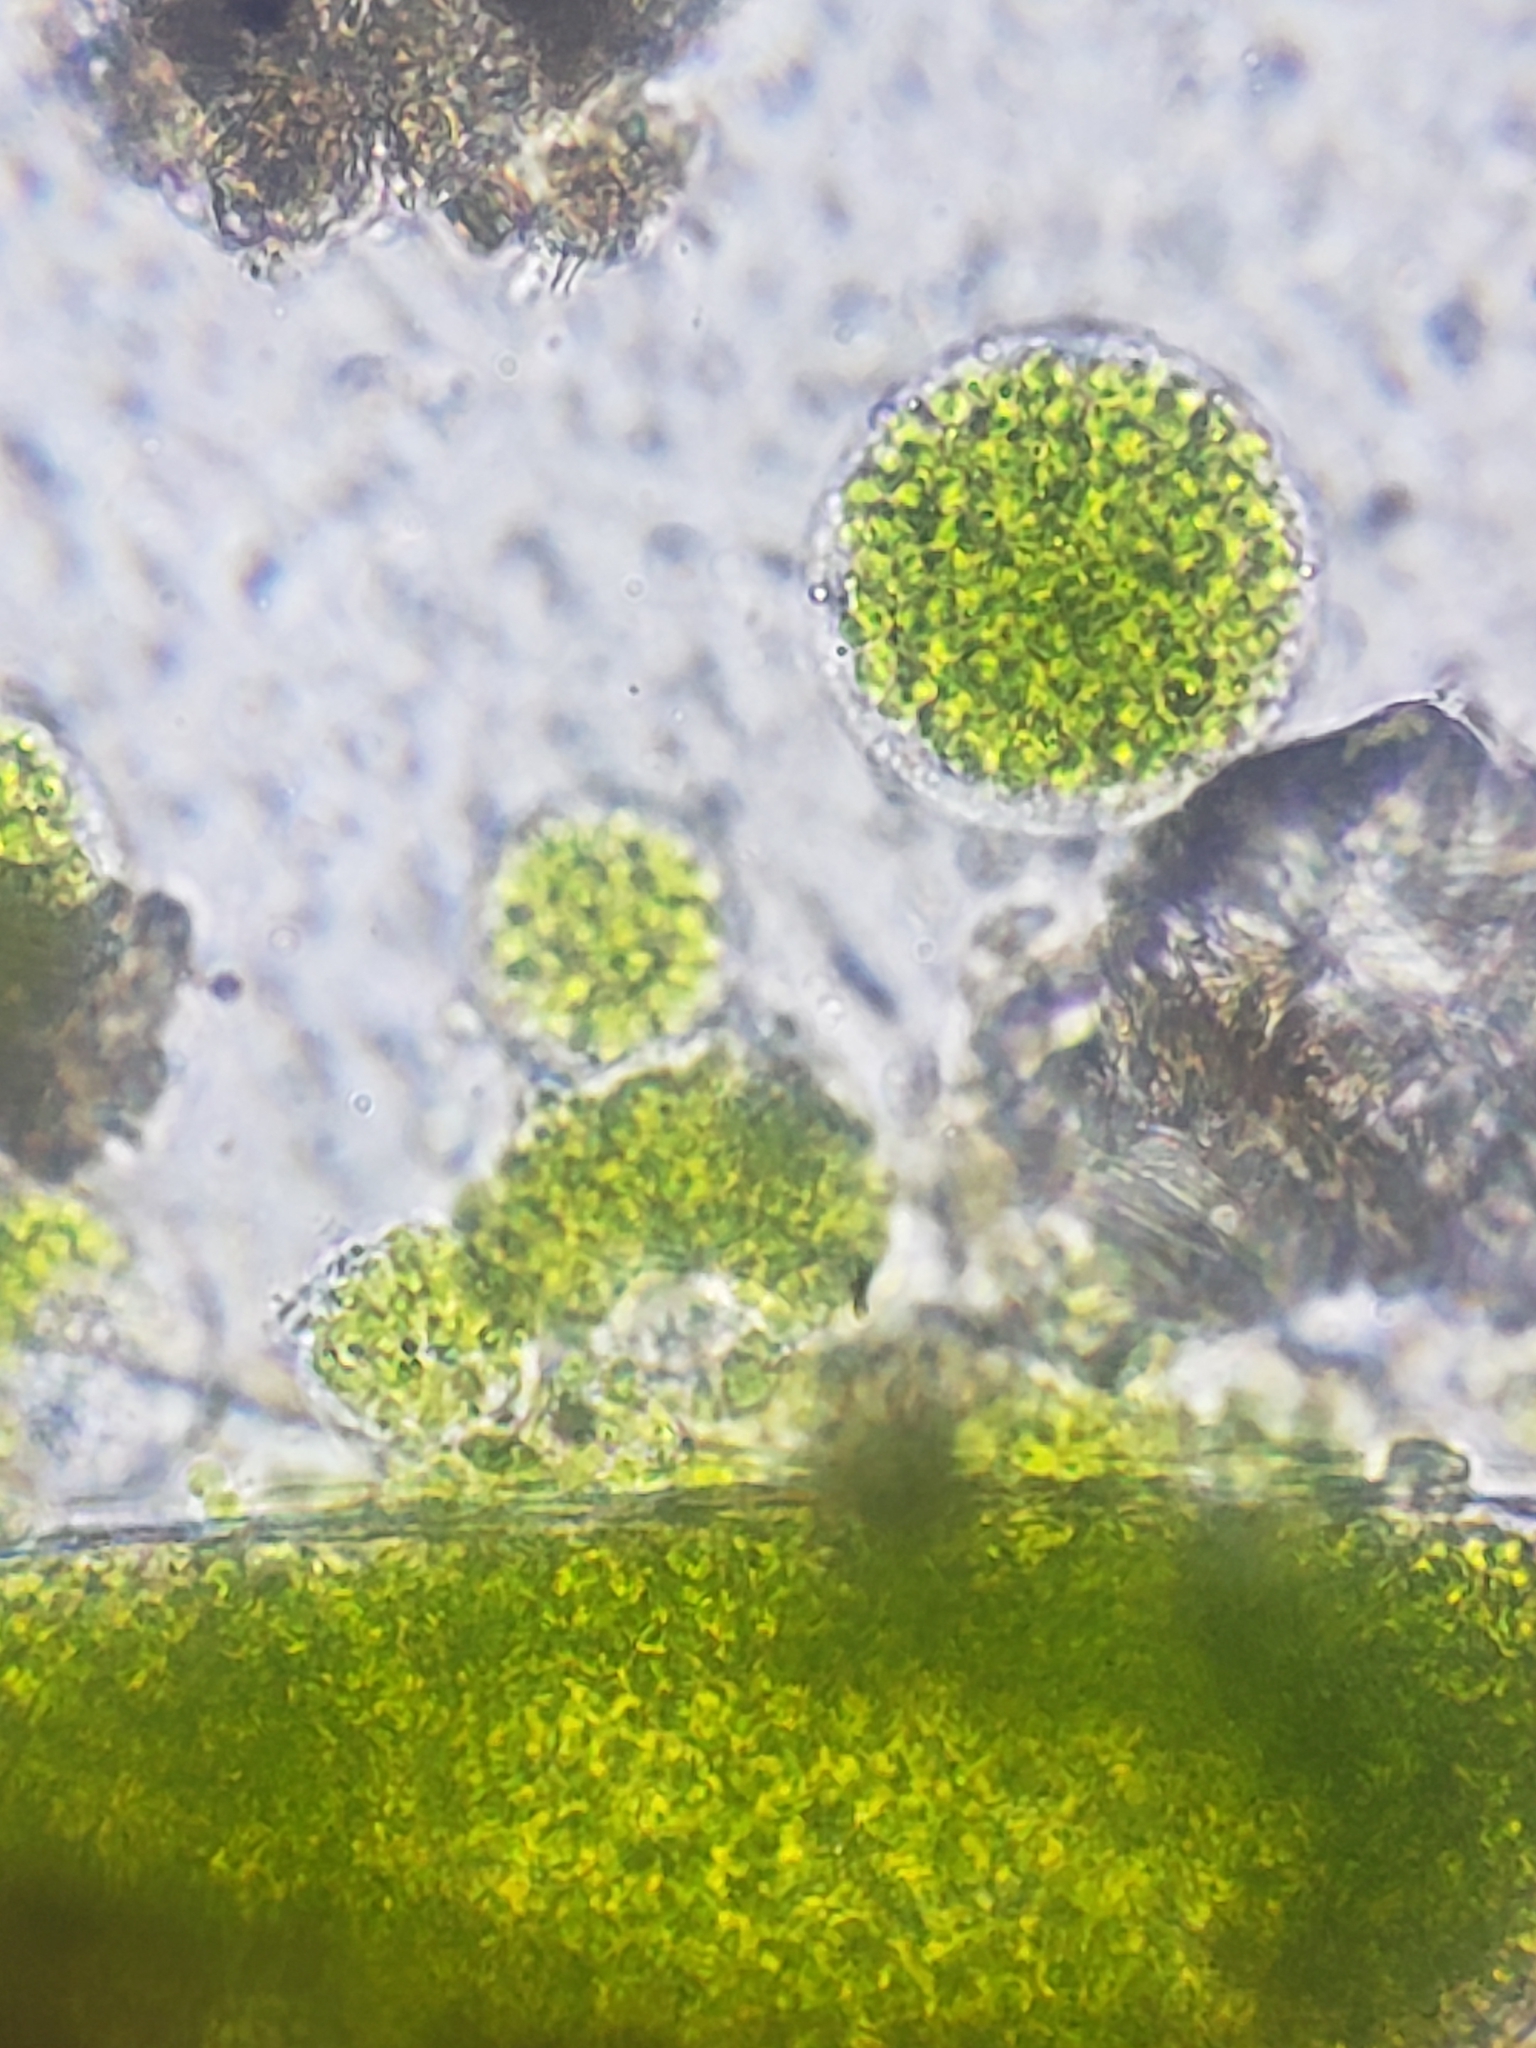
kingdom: Plantae
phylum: Charophyta
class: Conjugatophyceae
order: Desmidiales
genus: Hyalotheca
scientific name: Hyalotheca dissiliens
